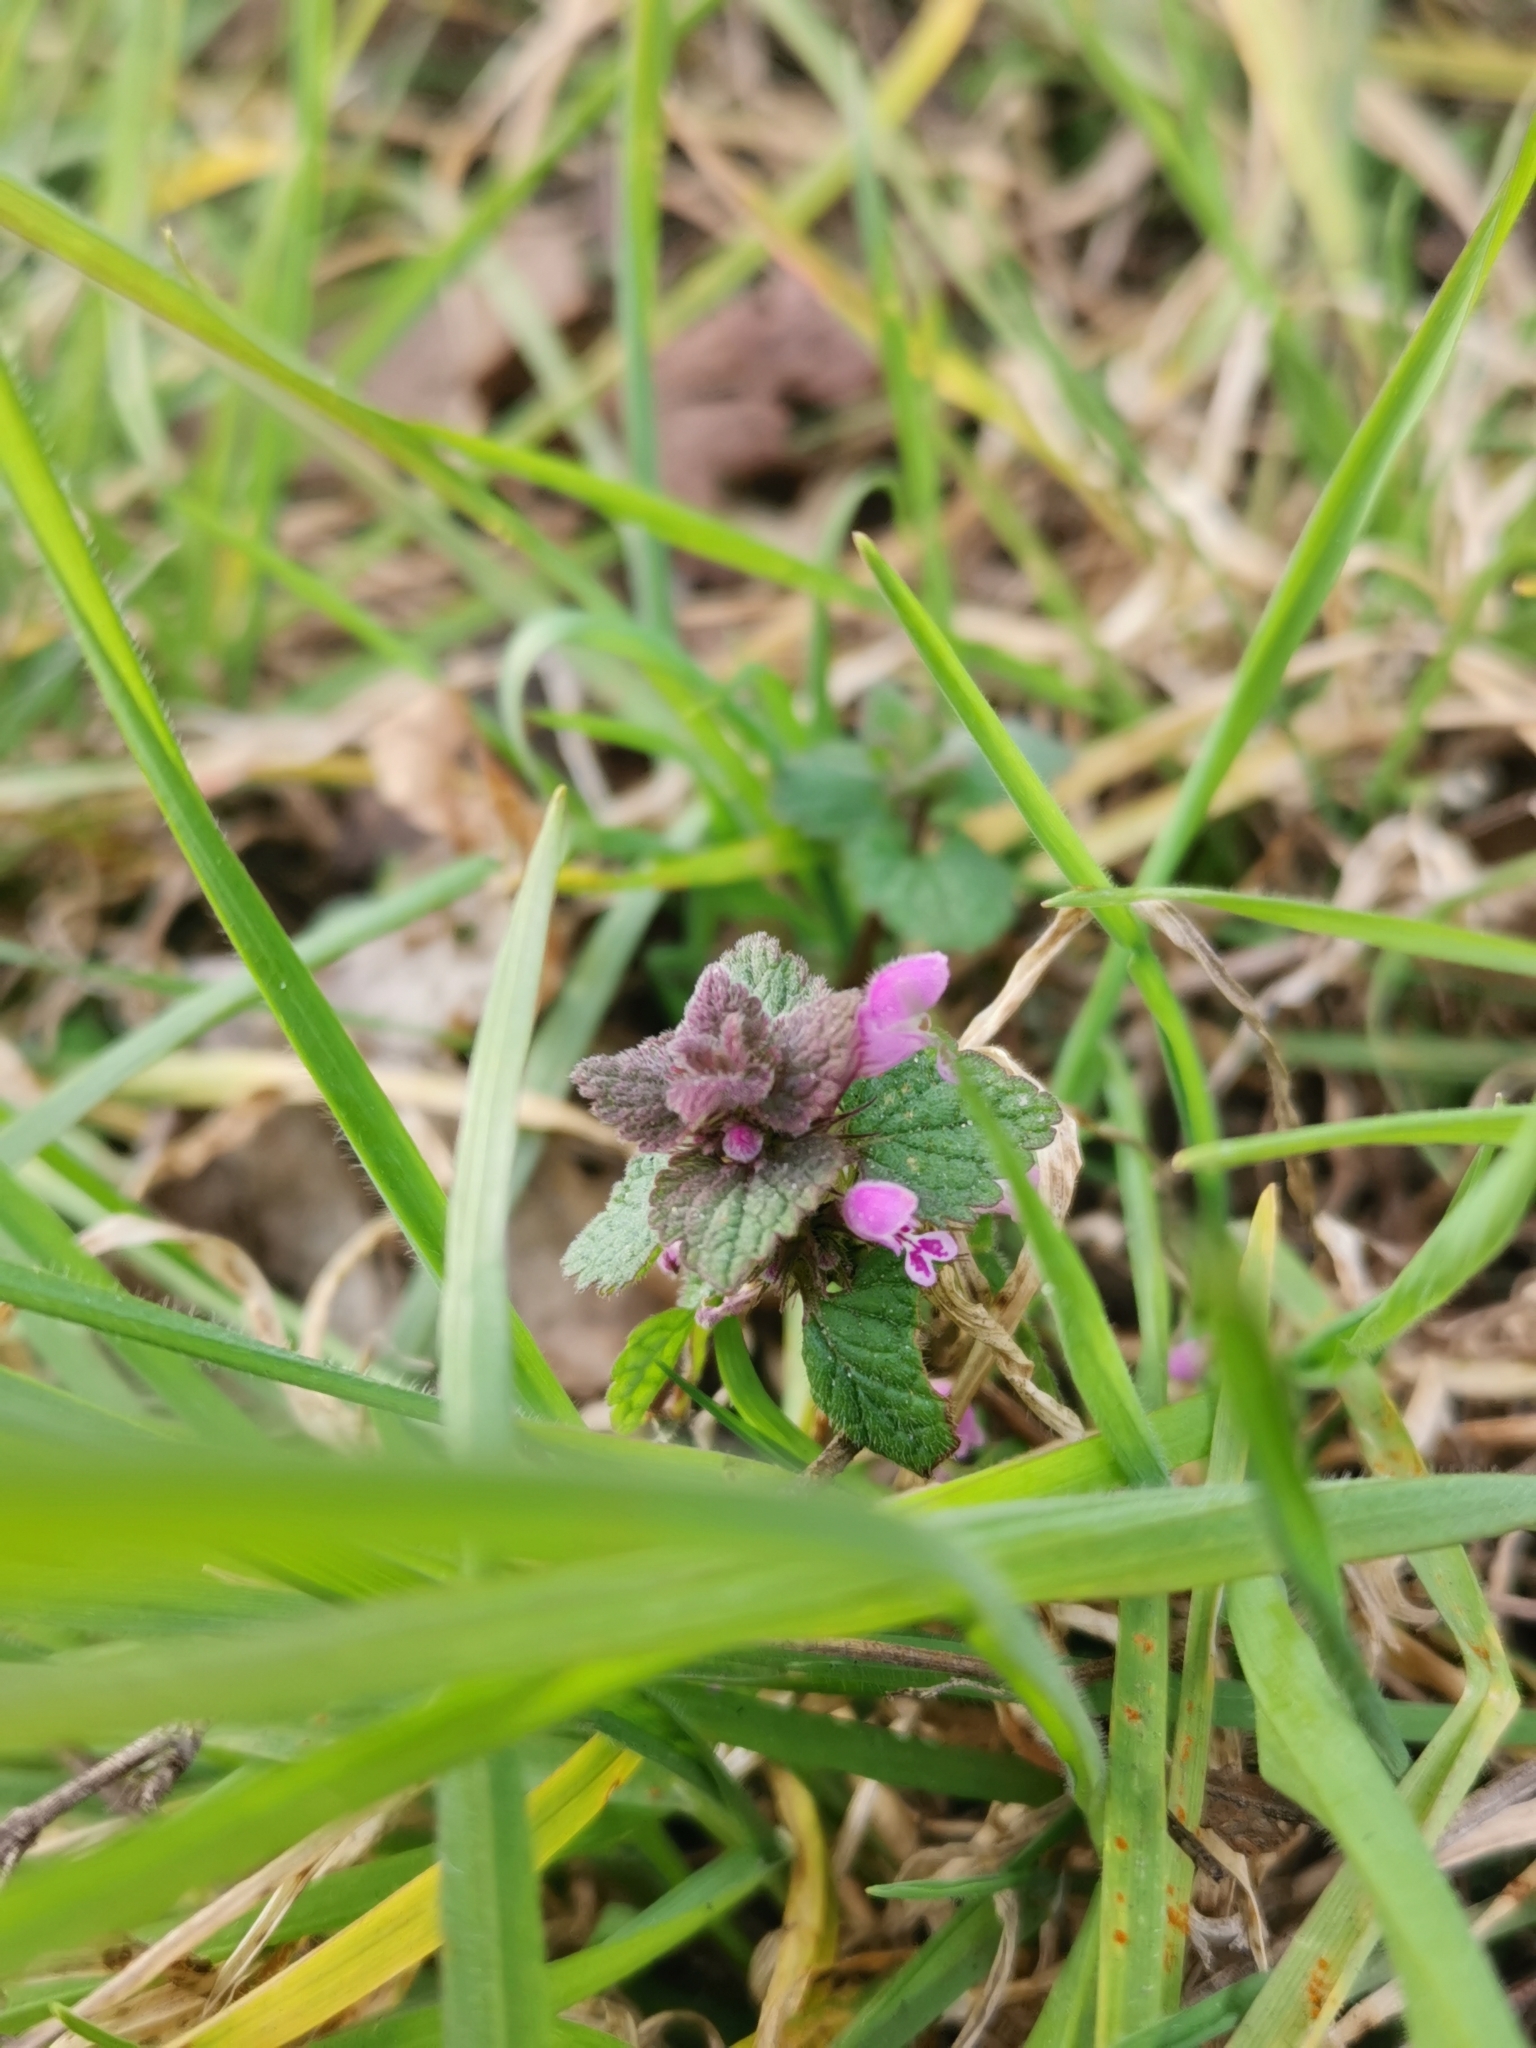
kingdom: Plantae
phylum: Tracheophyta
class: Magnoliopsida
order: Lamiales
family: Lamiaceae
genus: Lamium
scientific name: Lamium purpureum
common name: Red dead-nettle
